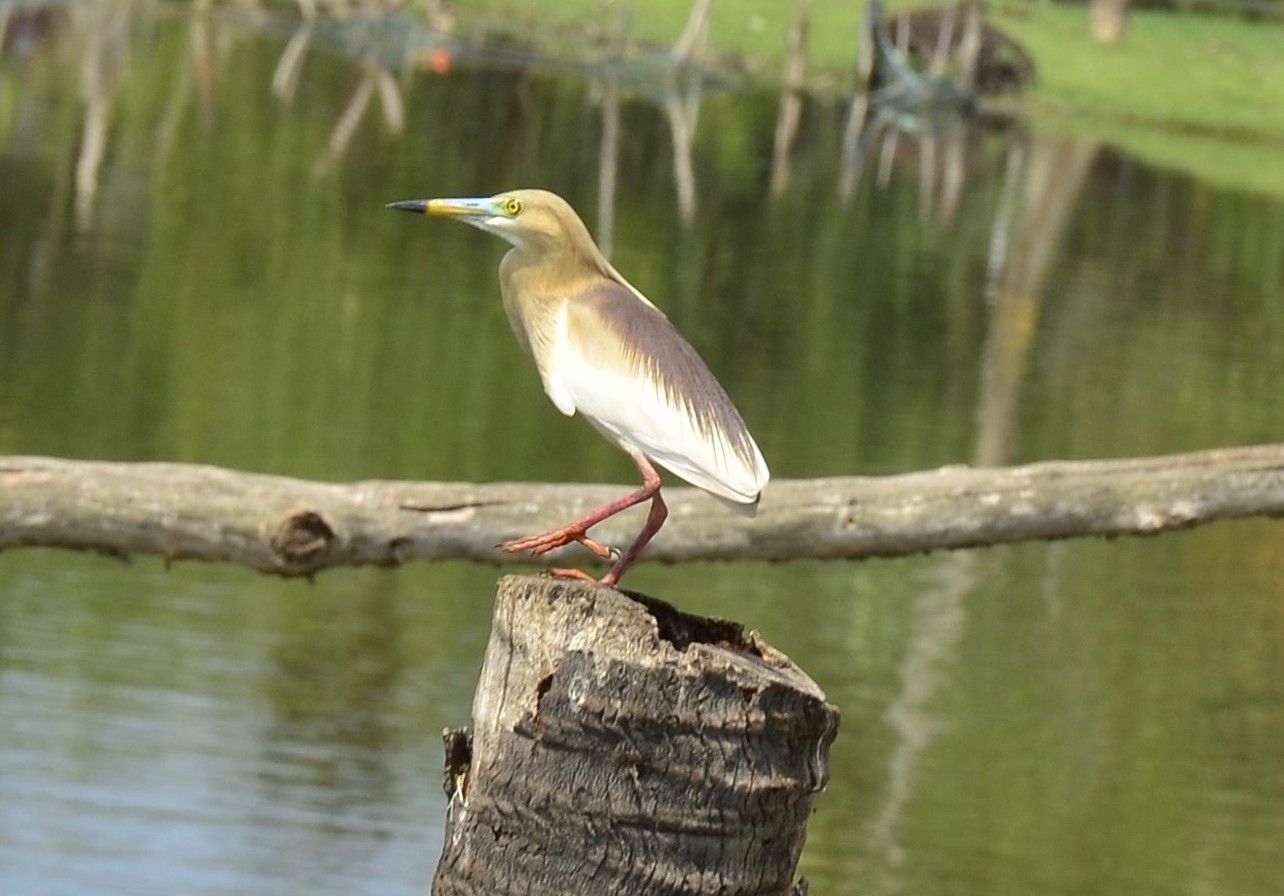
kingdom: Animalia
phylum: Chordata
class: Aves
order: Pelecaniformes
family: Ardeidae
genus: Ardeola
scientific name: Ardeola grayii
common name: Indian pond heron
